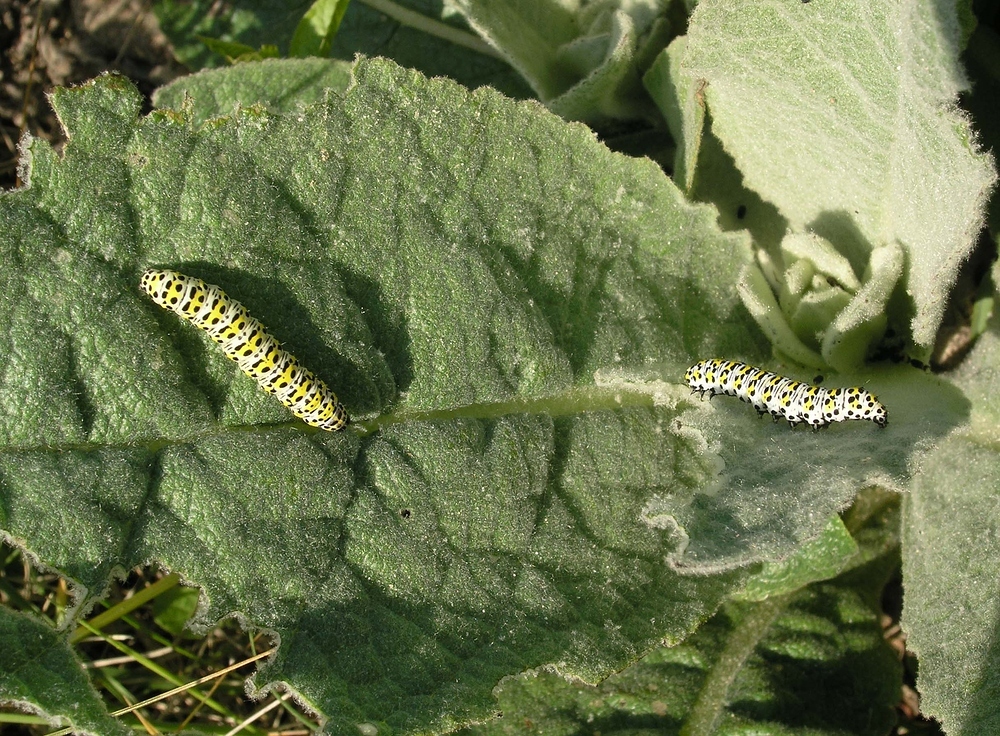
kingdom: Animalia
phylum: Arthropoda
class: Insecta
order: Lepidoptera
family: Noctuidae
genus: Cucullia
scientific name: Cucullia verbasci
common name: Mullein
